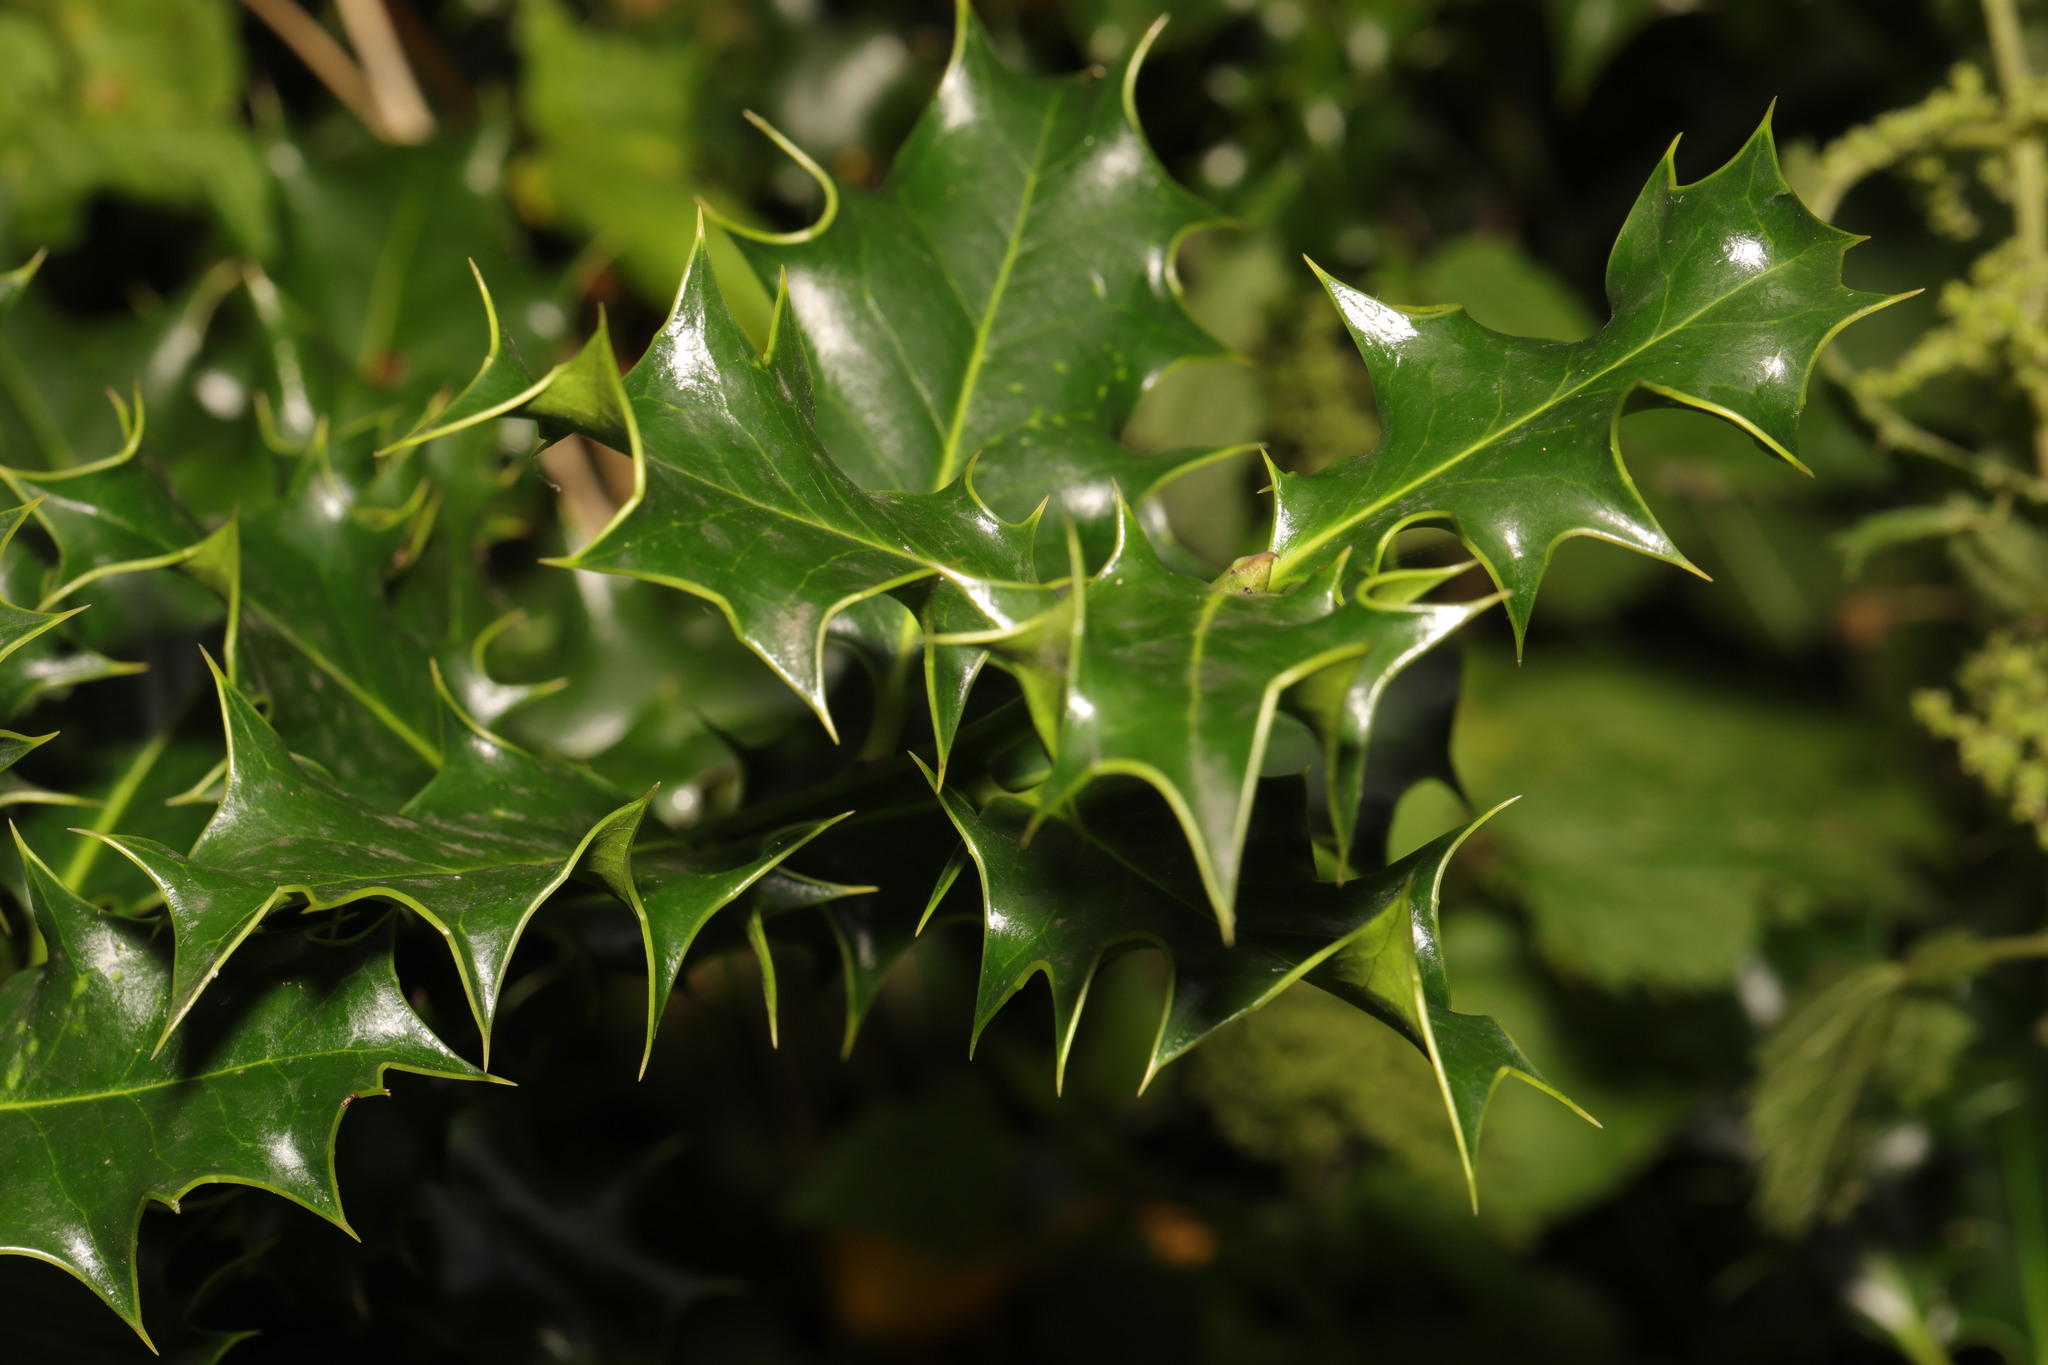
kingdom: Plantae
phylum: Tracheophyta
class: Magnoliopsida
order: Aquifoliales
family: Aquifoliaceae
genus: Ilex
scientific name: Ilex aquifolium
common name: English holly
